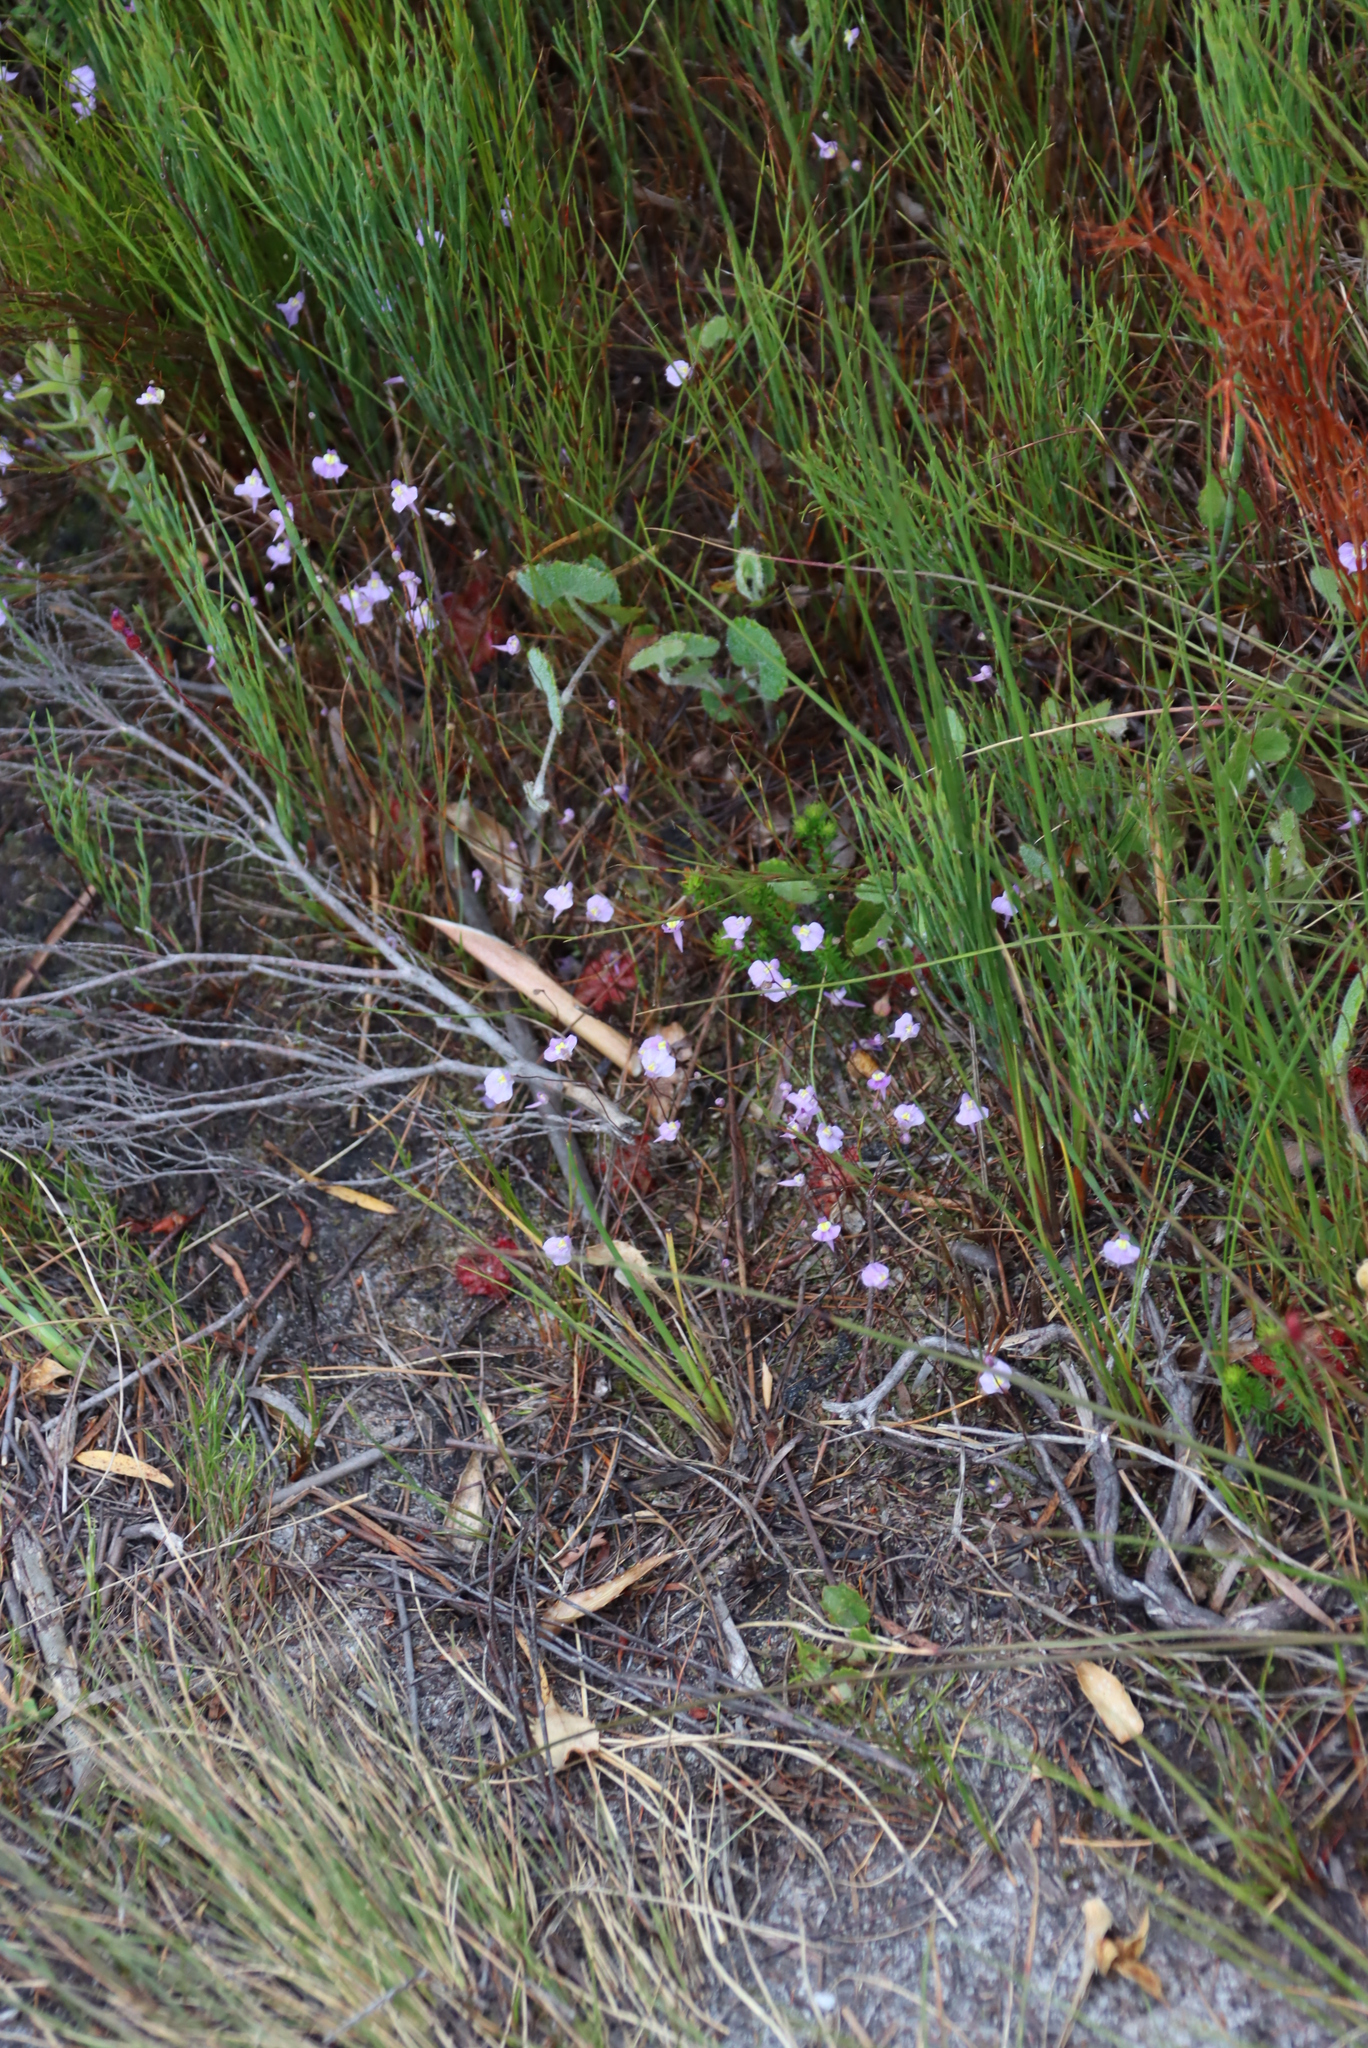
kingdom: Plantae
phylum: Tracheophyta
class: Magnoliopsida
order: Lamiales
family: Lentibulariaceae
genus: Utricularia
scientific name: Utricularia bisquamata
